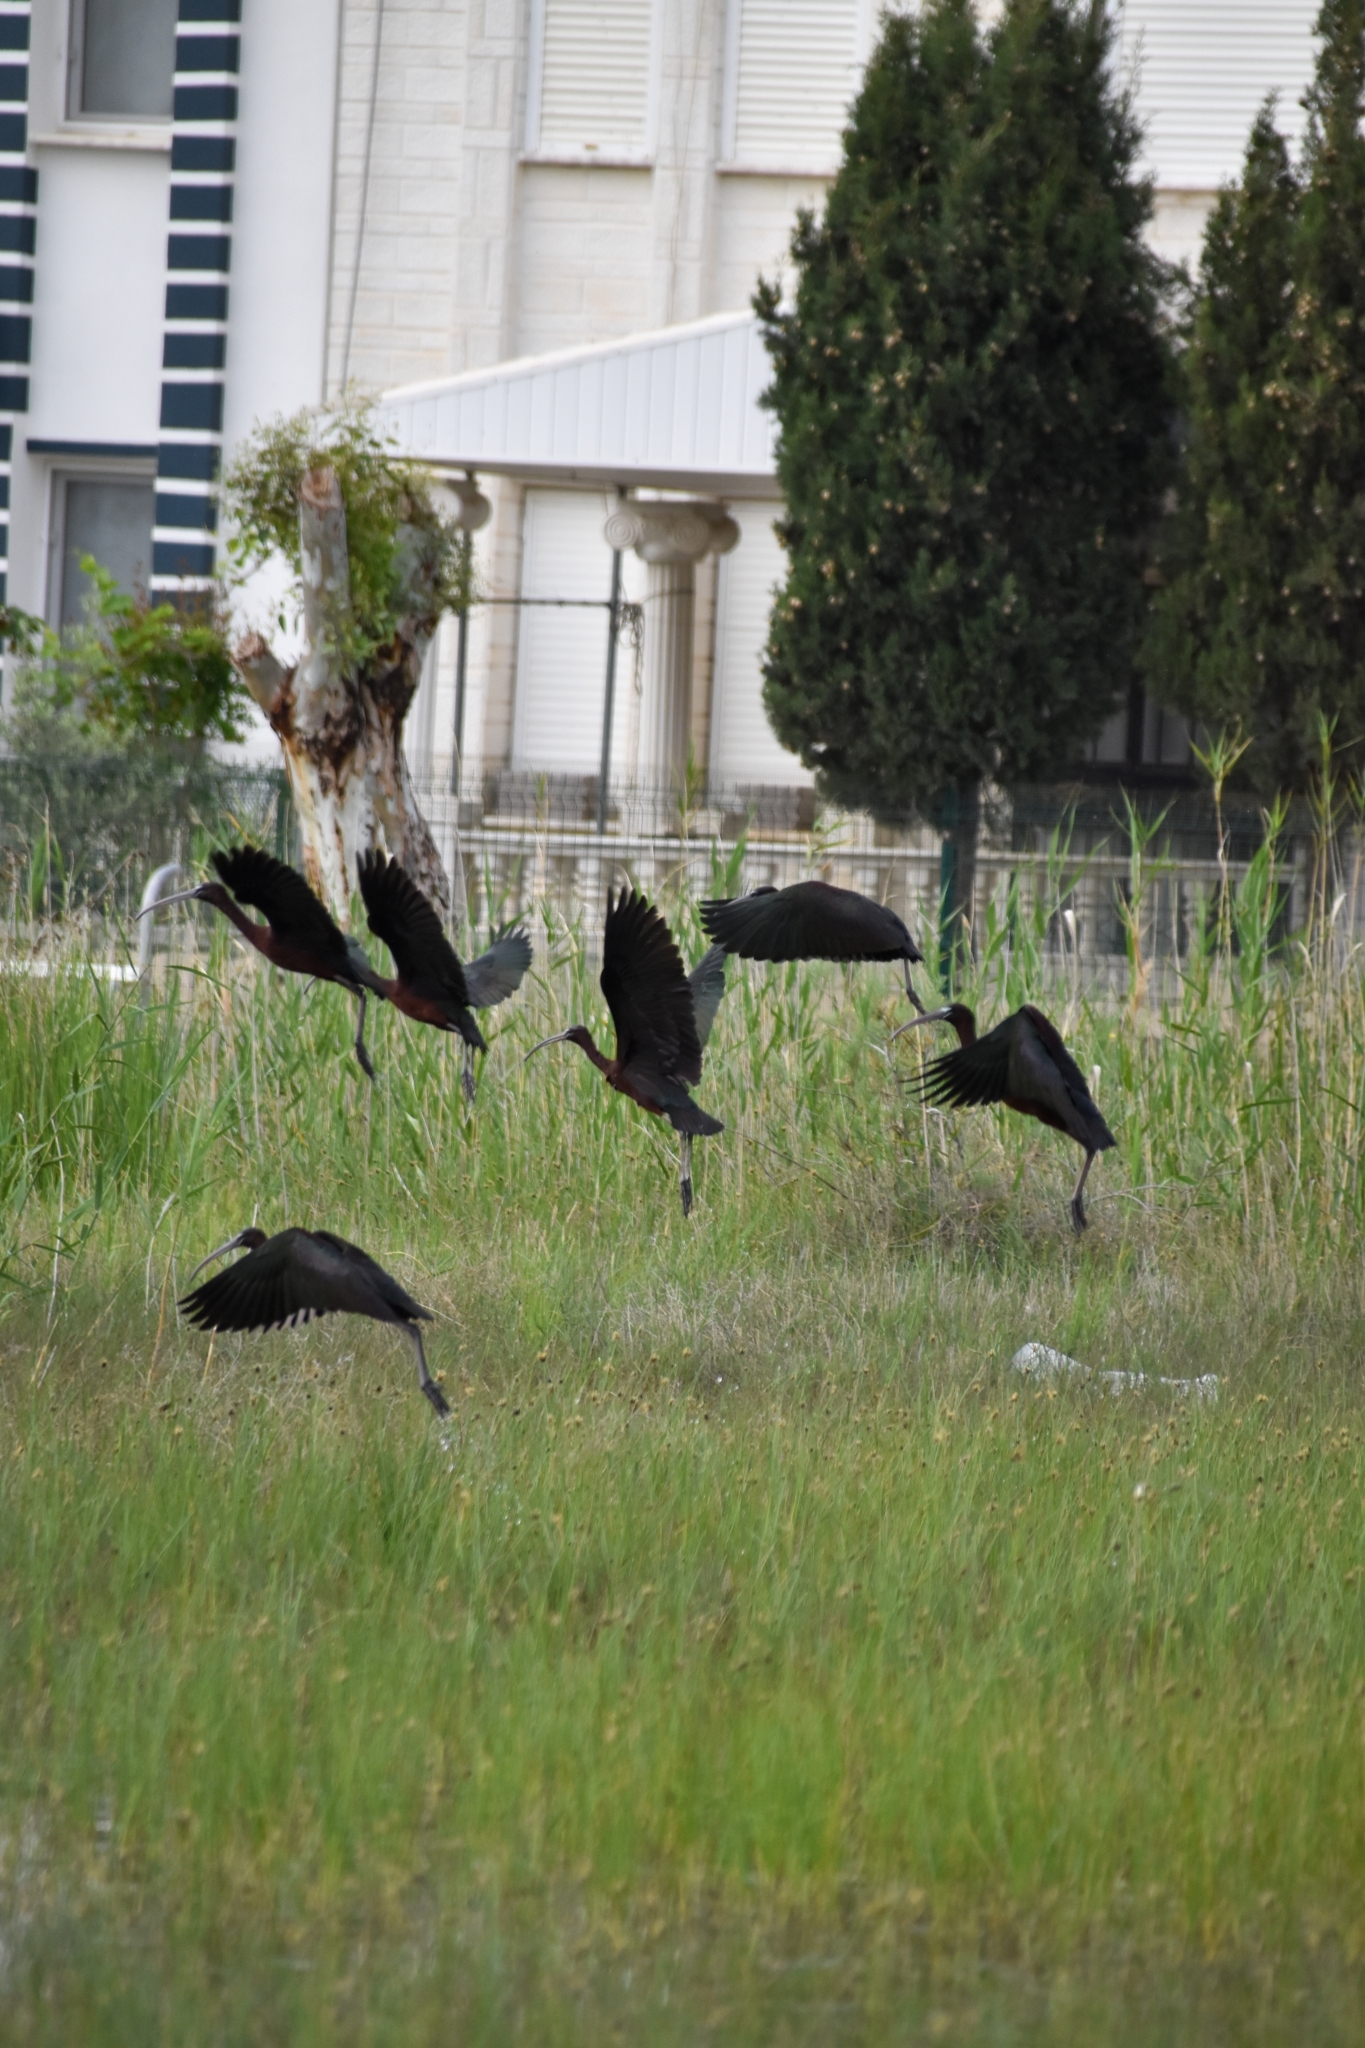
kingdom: Animalia
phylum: Chordata
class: Aves
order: Pelecaniformes
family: Threskiornithidae
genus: Plegadis
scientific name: Plegadis falcinellus
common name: Glossy ibis
